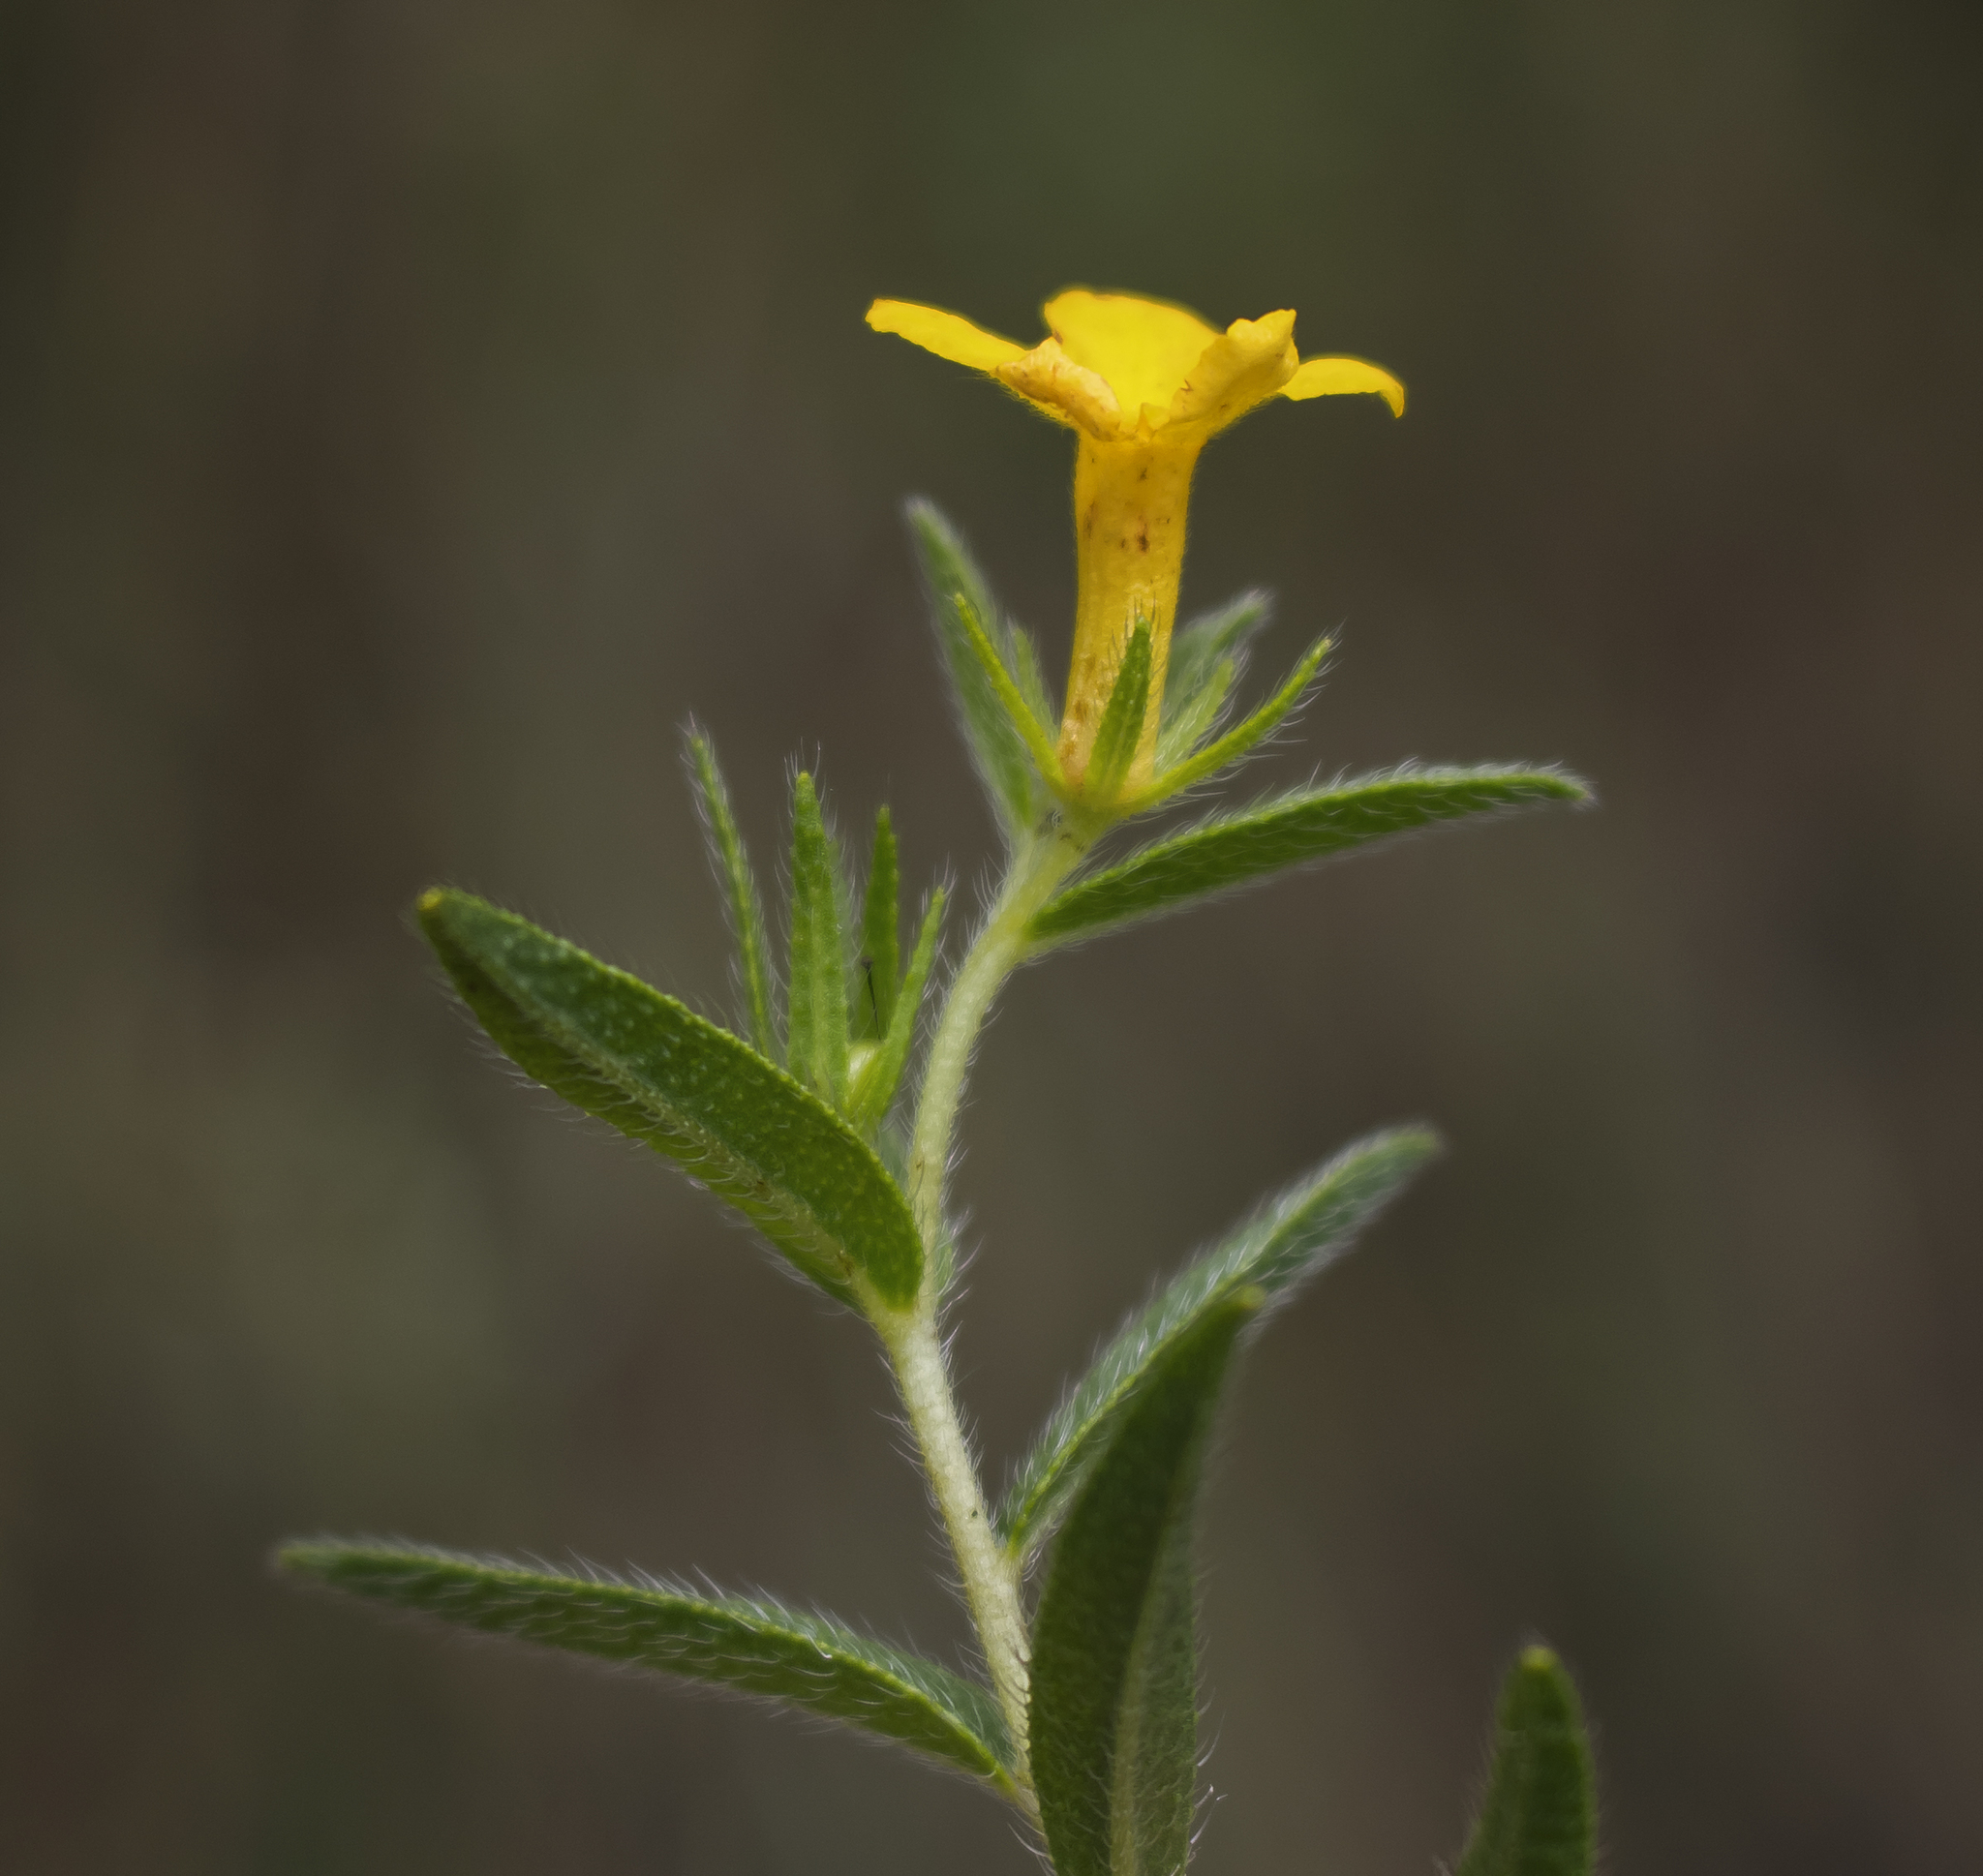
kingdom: Plantae
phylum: Tracheophyta
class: Magnoliopsida
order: Boraginales
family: Boraginaceae
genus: Lithospermum
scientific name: Lithospermum caroliniense
